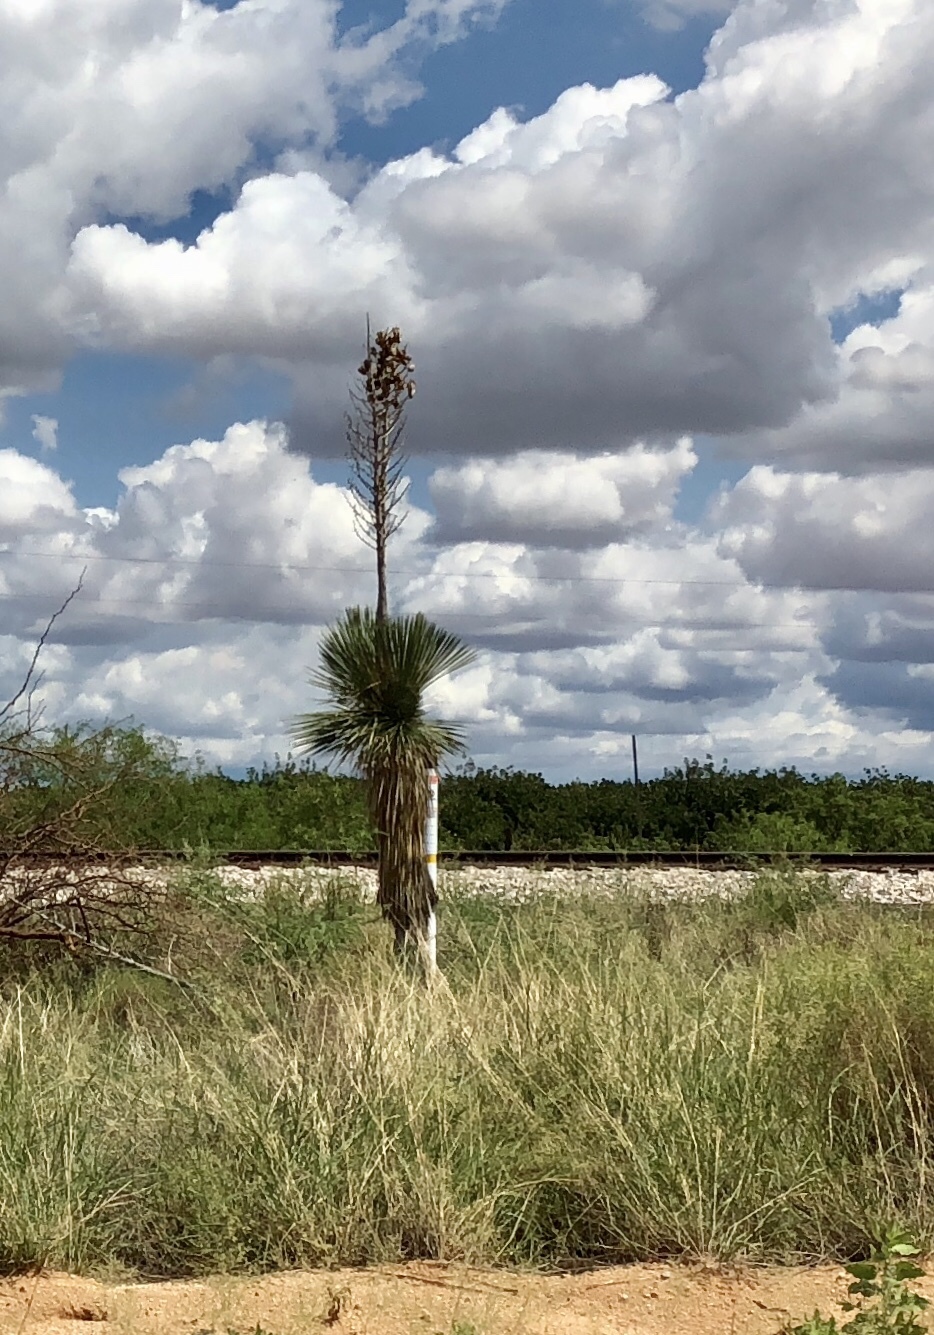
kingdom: Plantae
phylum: Tracheophyta
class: Liliopsida
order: Asparagales
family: Asparagaceae
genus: Yucca
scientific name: Yucca elata
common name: Palmella
